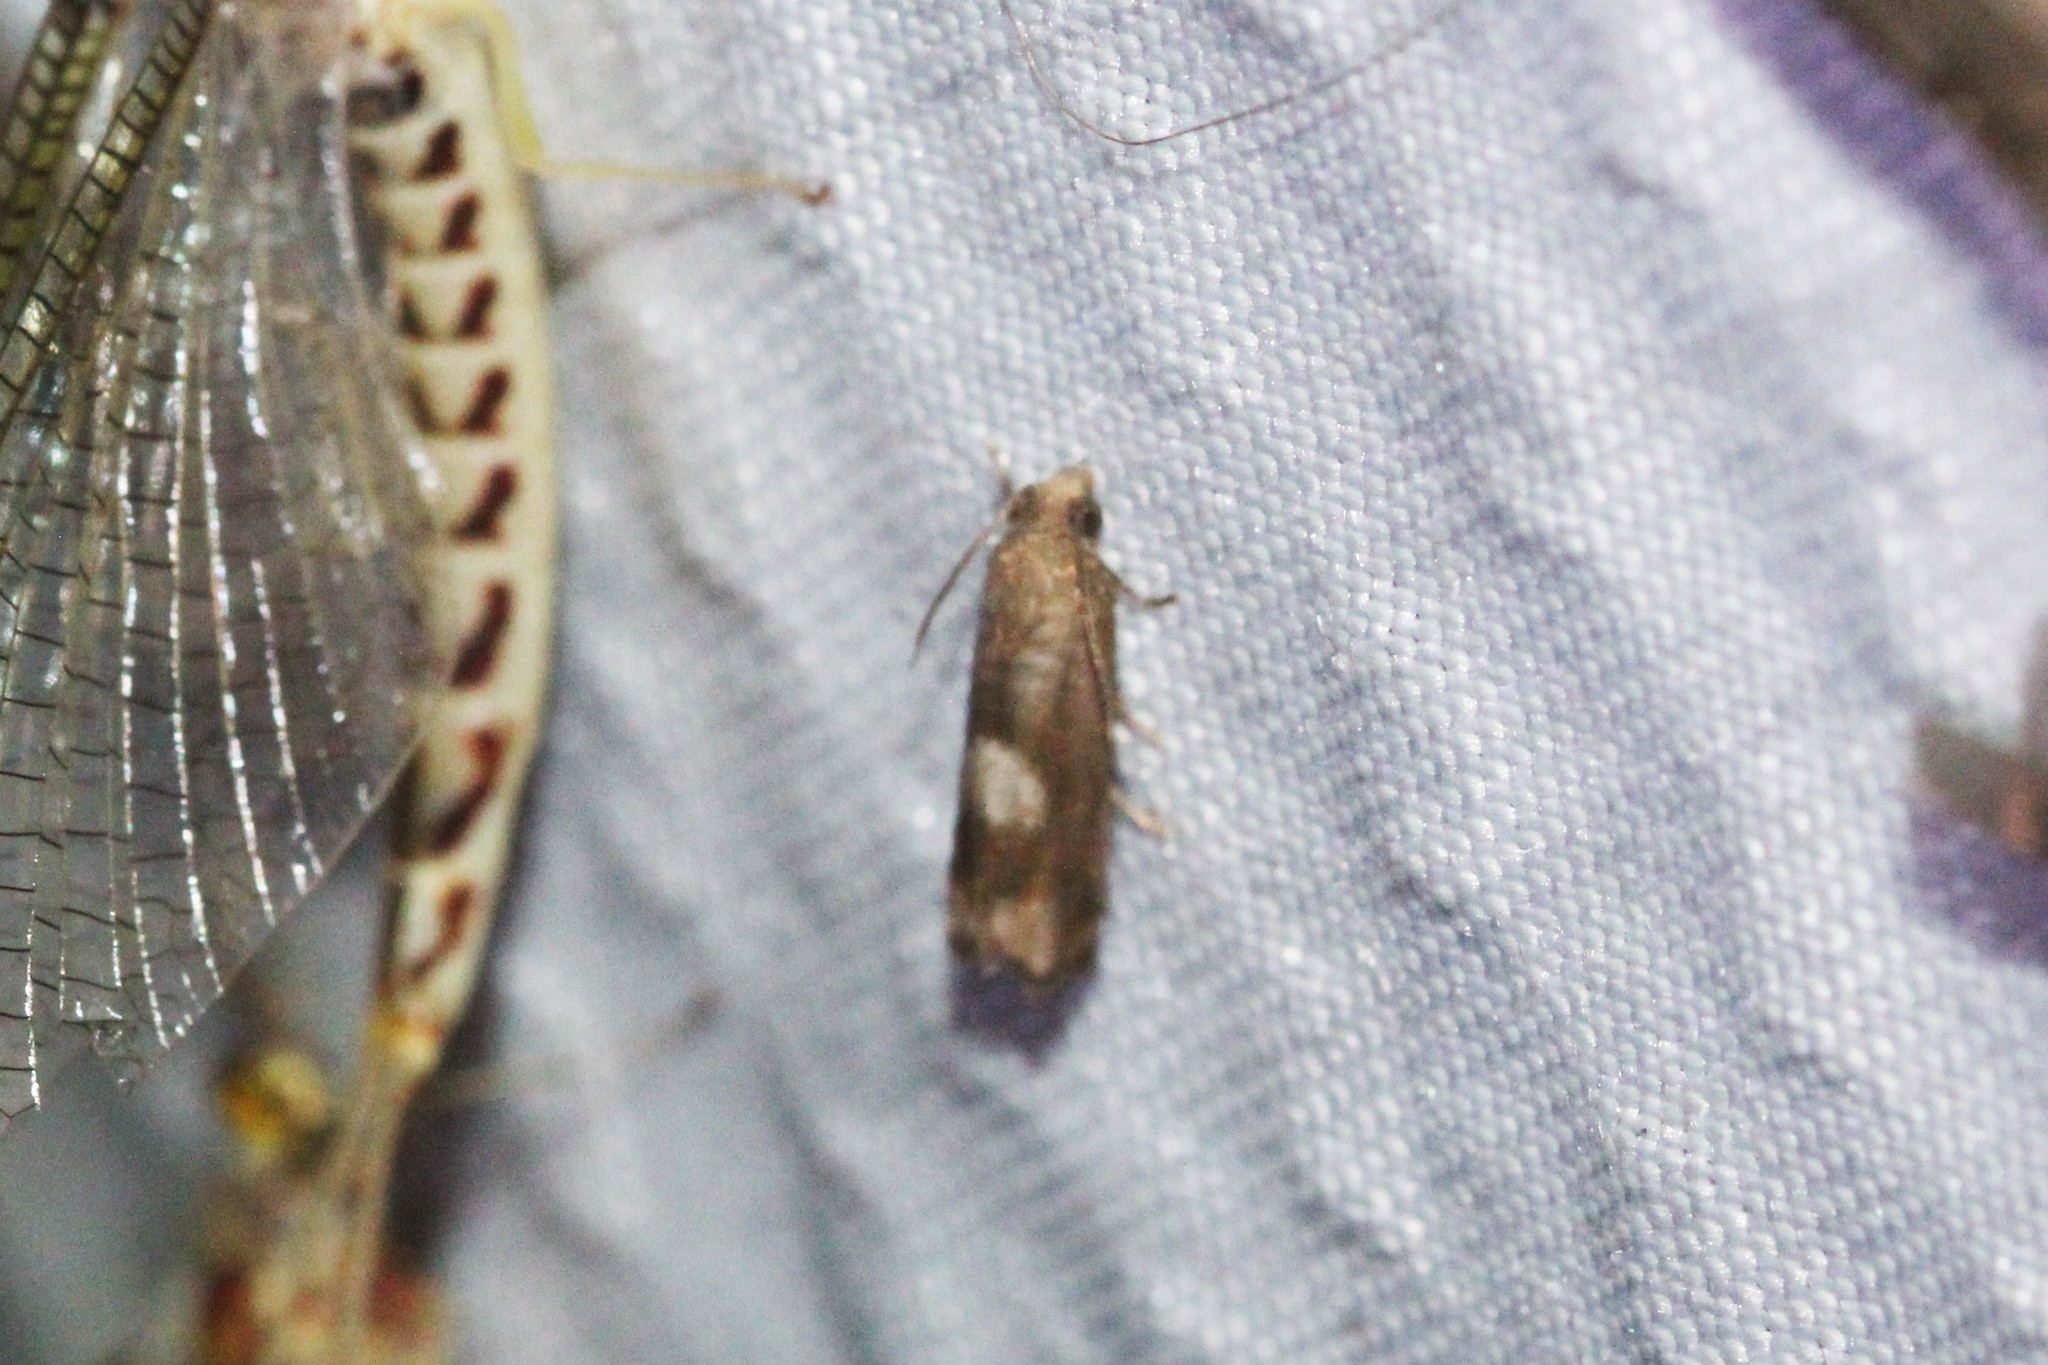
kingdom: Animalia
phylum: Arthropoda
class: Insecta
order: Lepidoptera
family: Tortricidae
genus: Epiblema
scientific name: Epiblema boxcana
